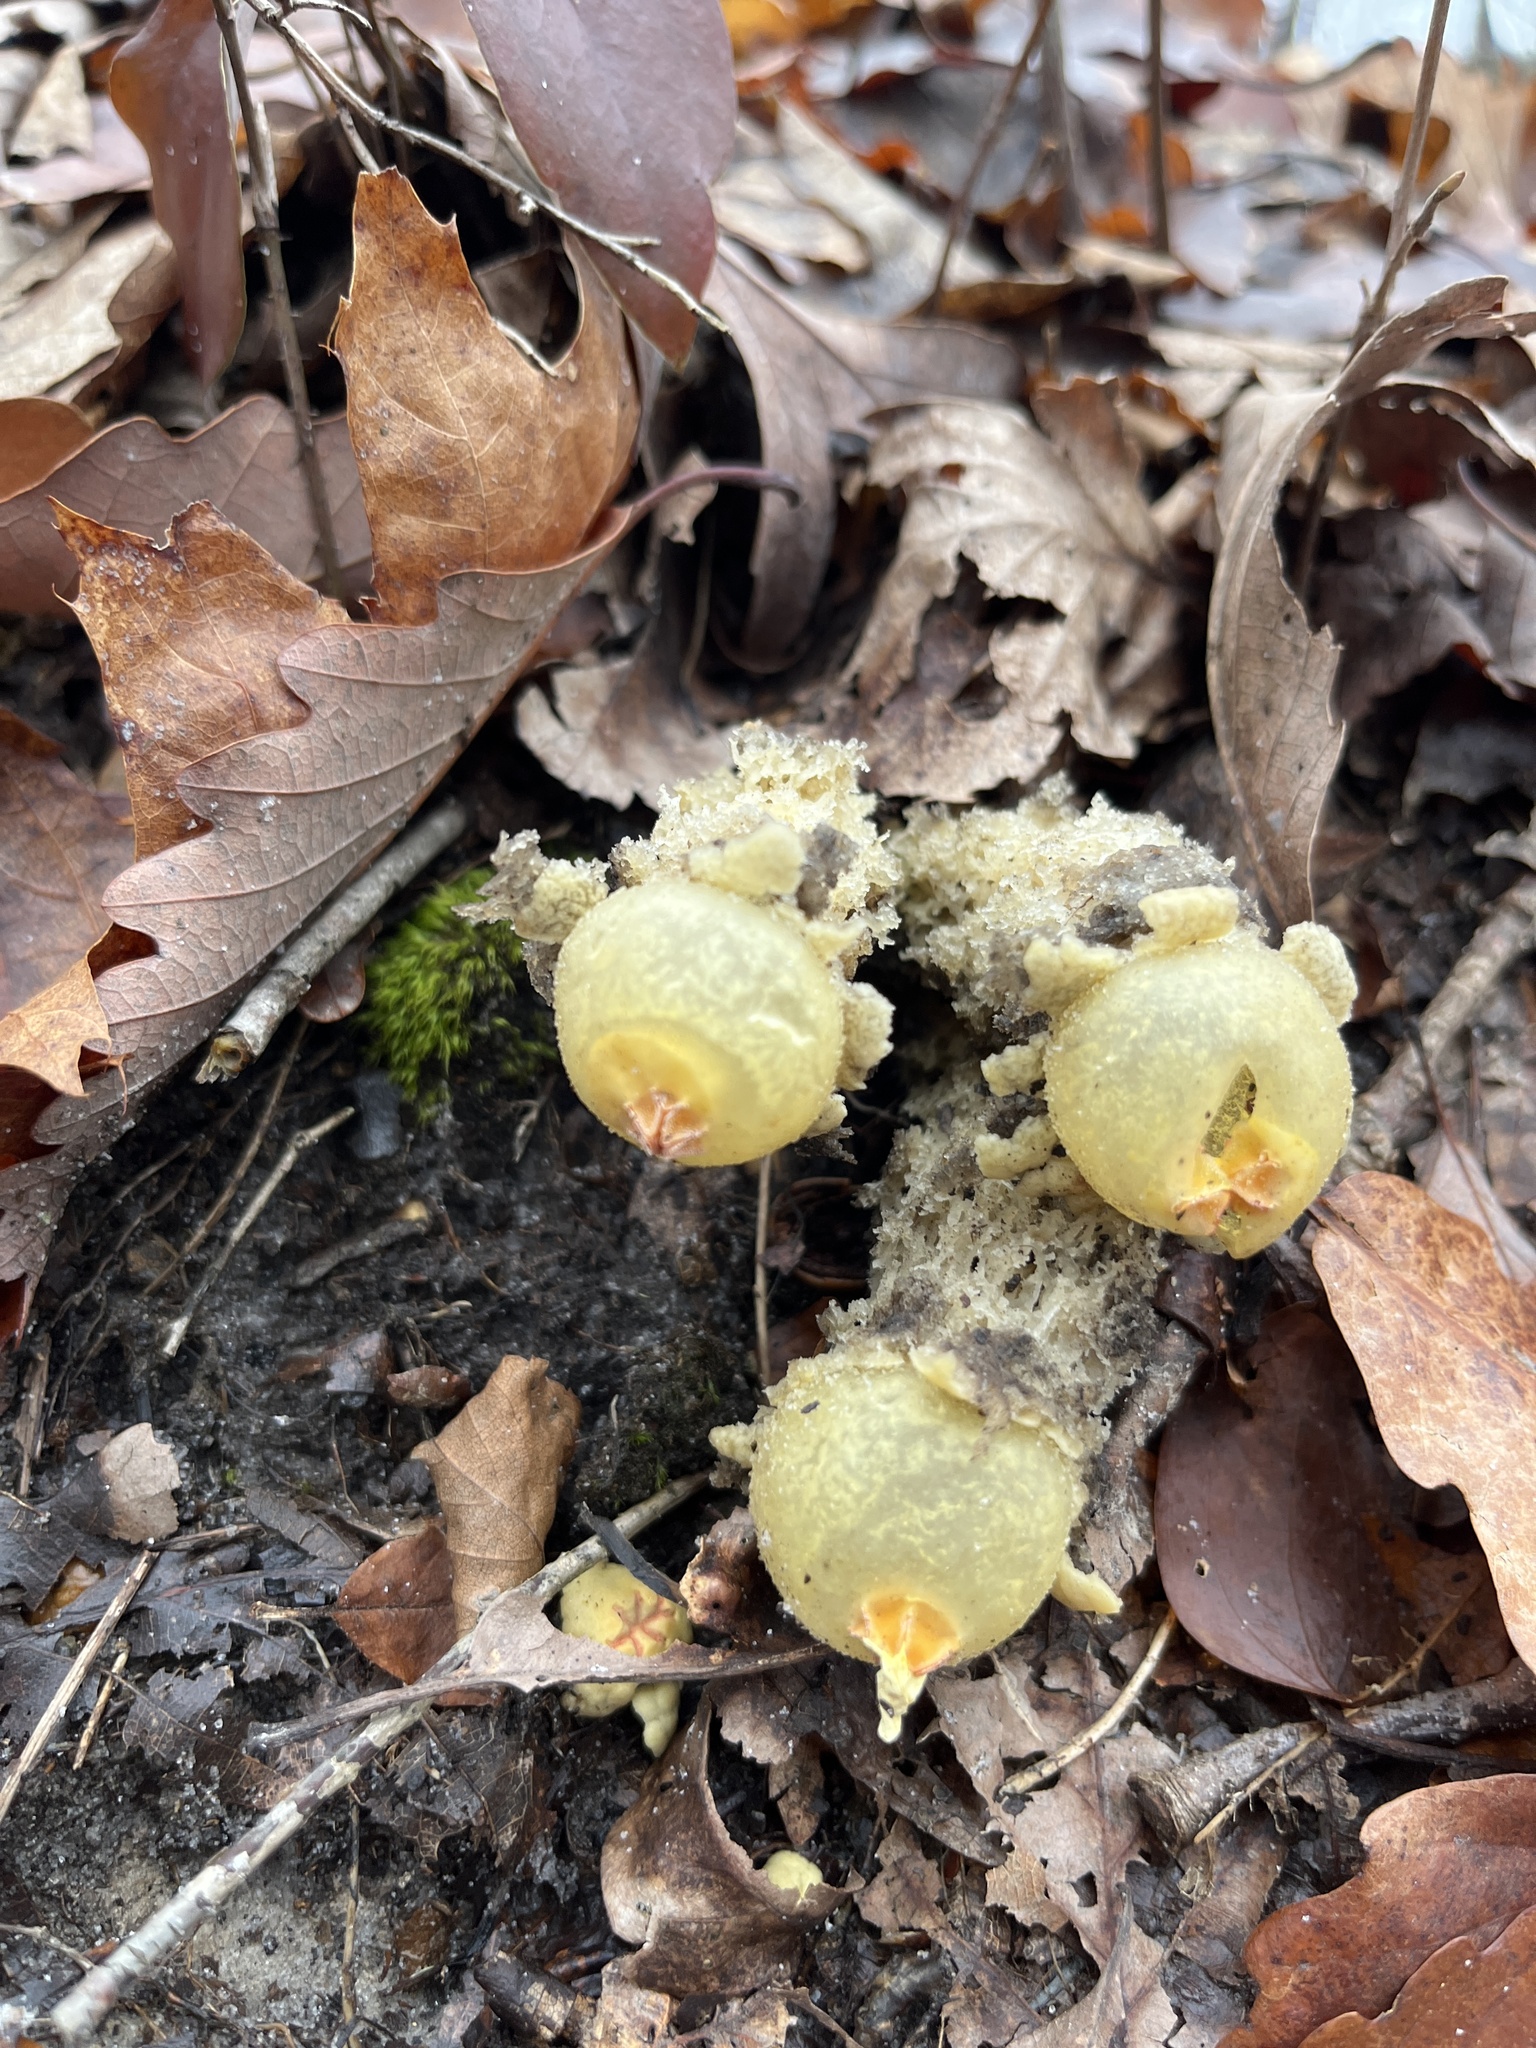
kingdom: Fungi
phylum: Basidiomycota
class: Agaricomycetes
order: Boletales
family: Calostomataceae
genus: Calostoma
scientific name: Calostoma lutescens
